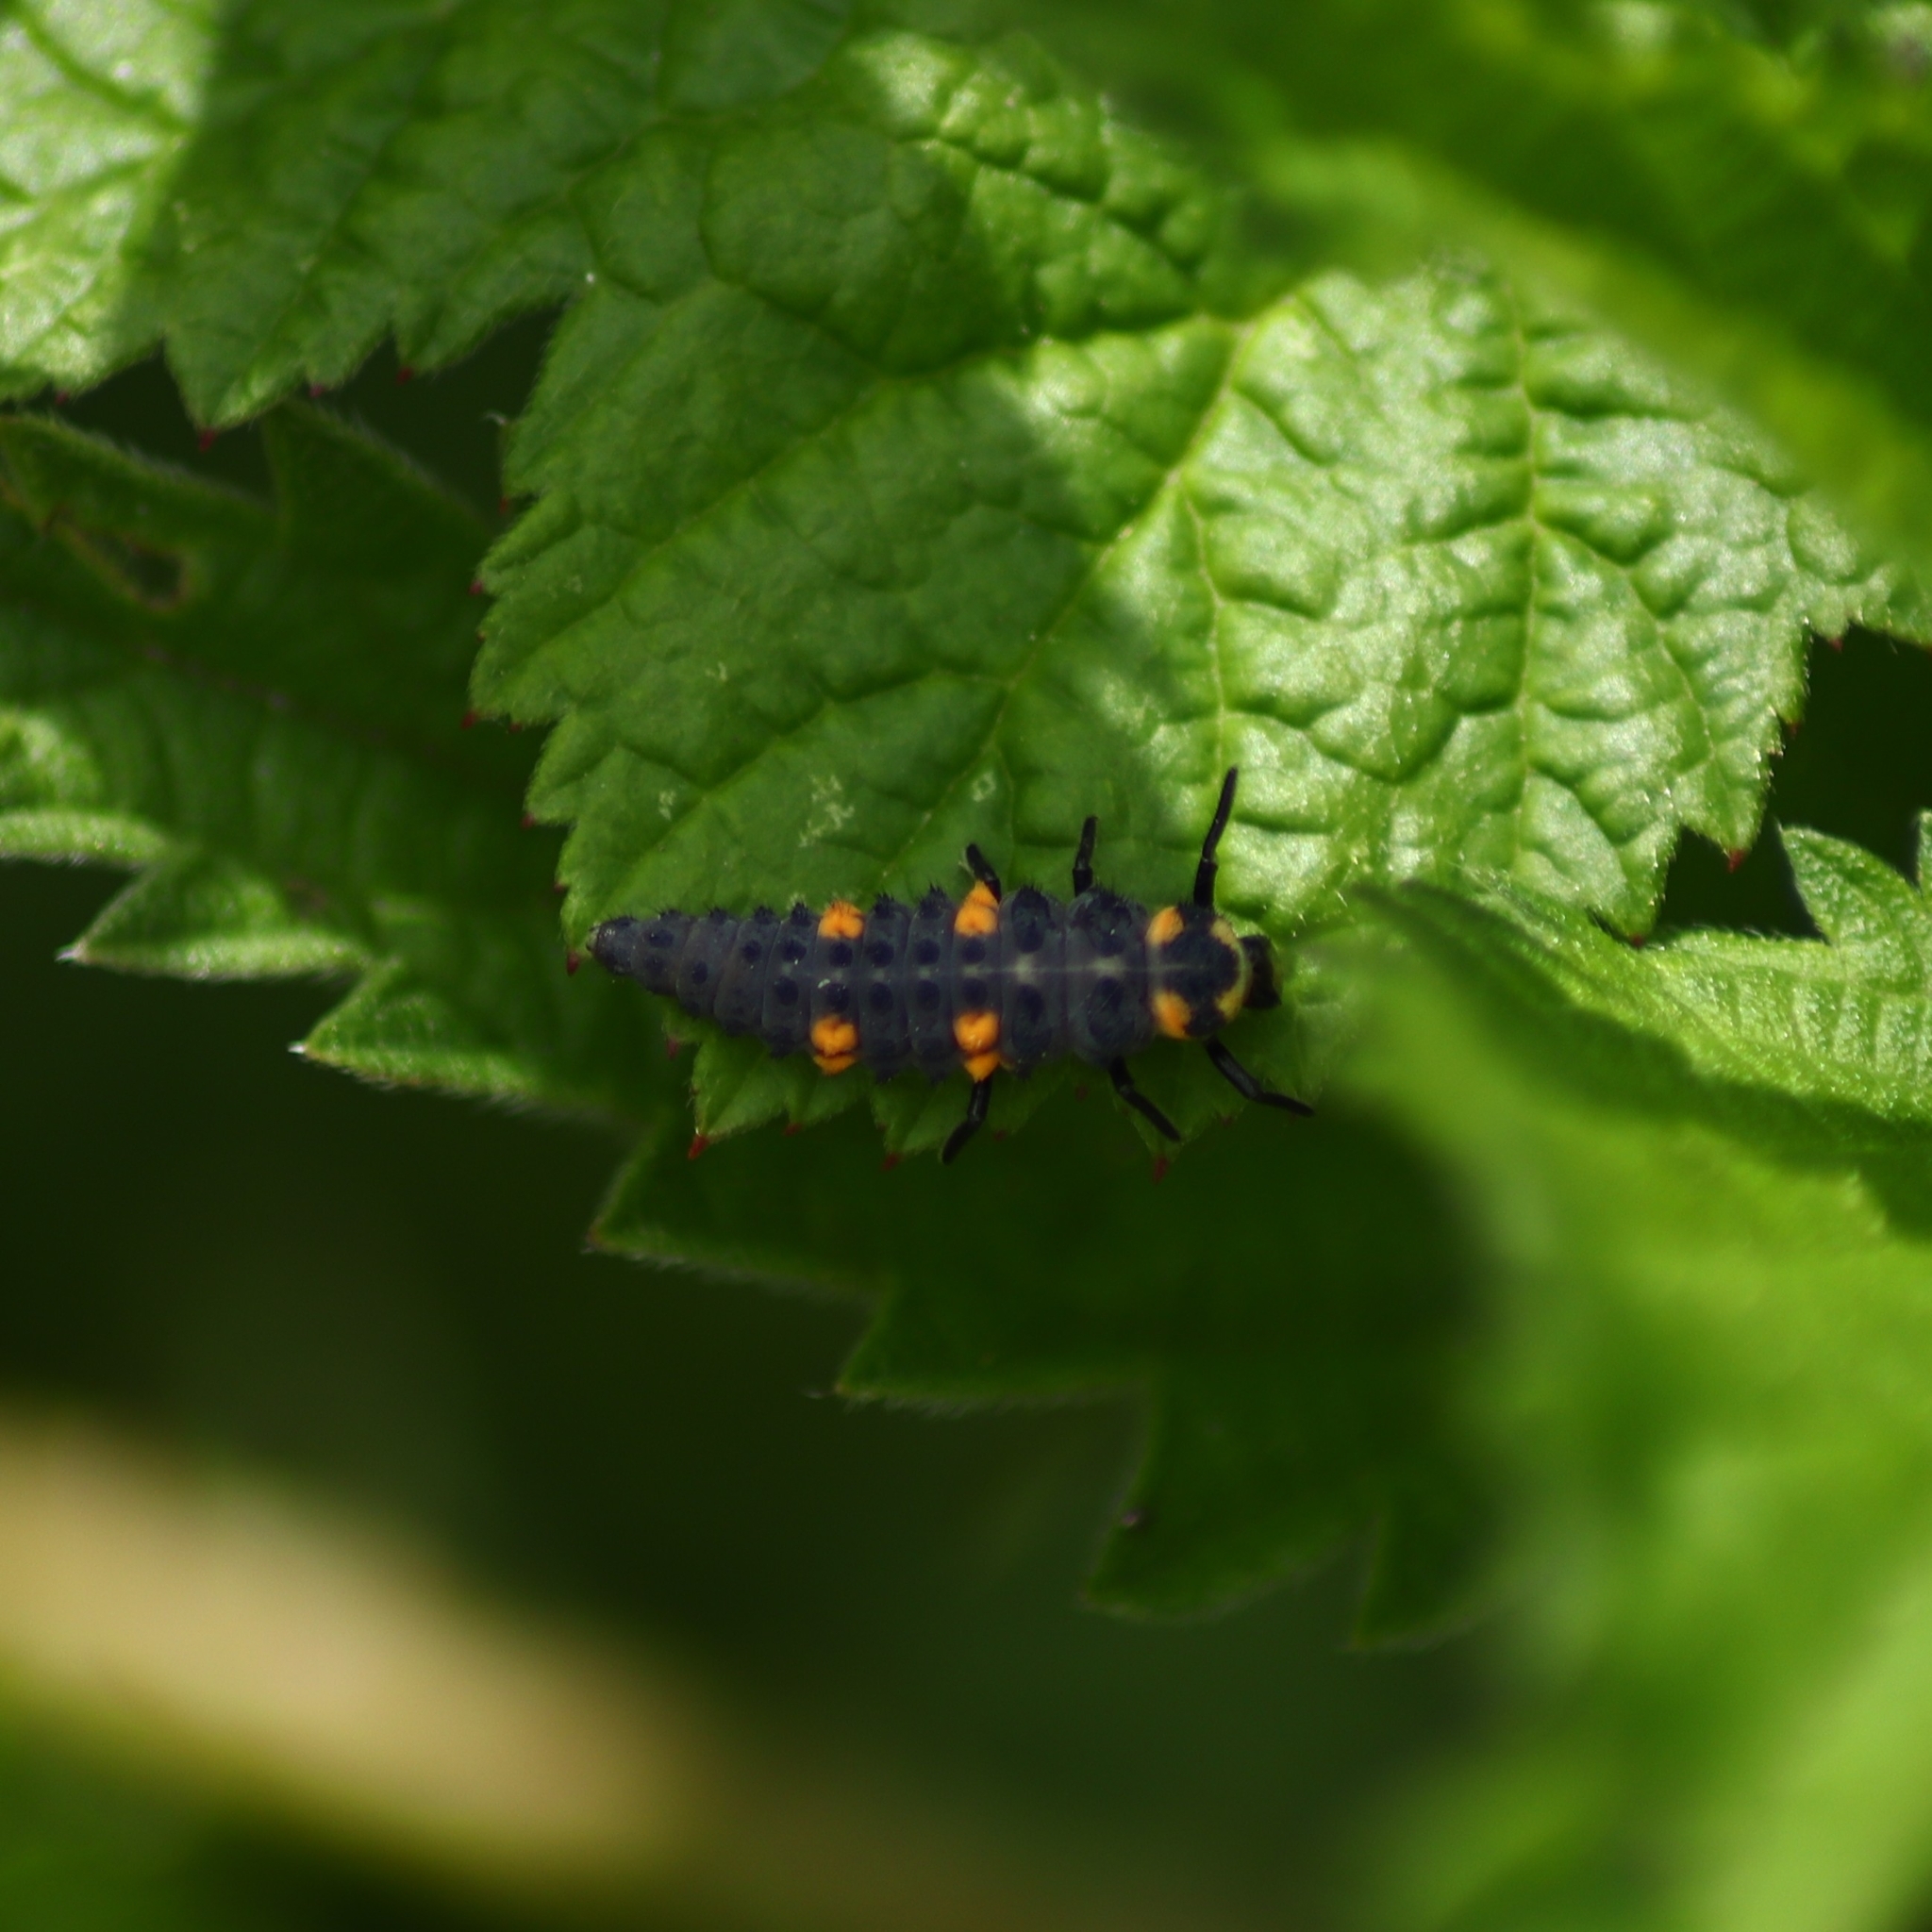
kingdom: Animalia
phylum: Arthropoda
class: Insecta
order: Coleoptera
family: Coccinellidae
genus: Coccinella
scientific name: Coccinella septempunctata
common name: Sevenspotted lady beetle
